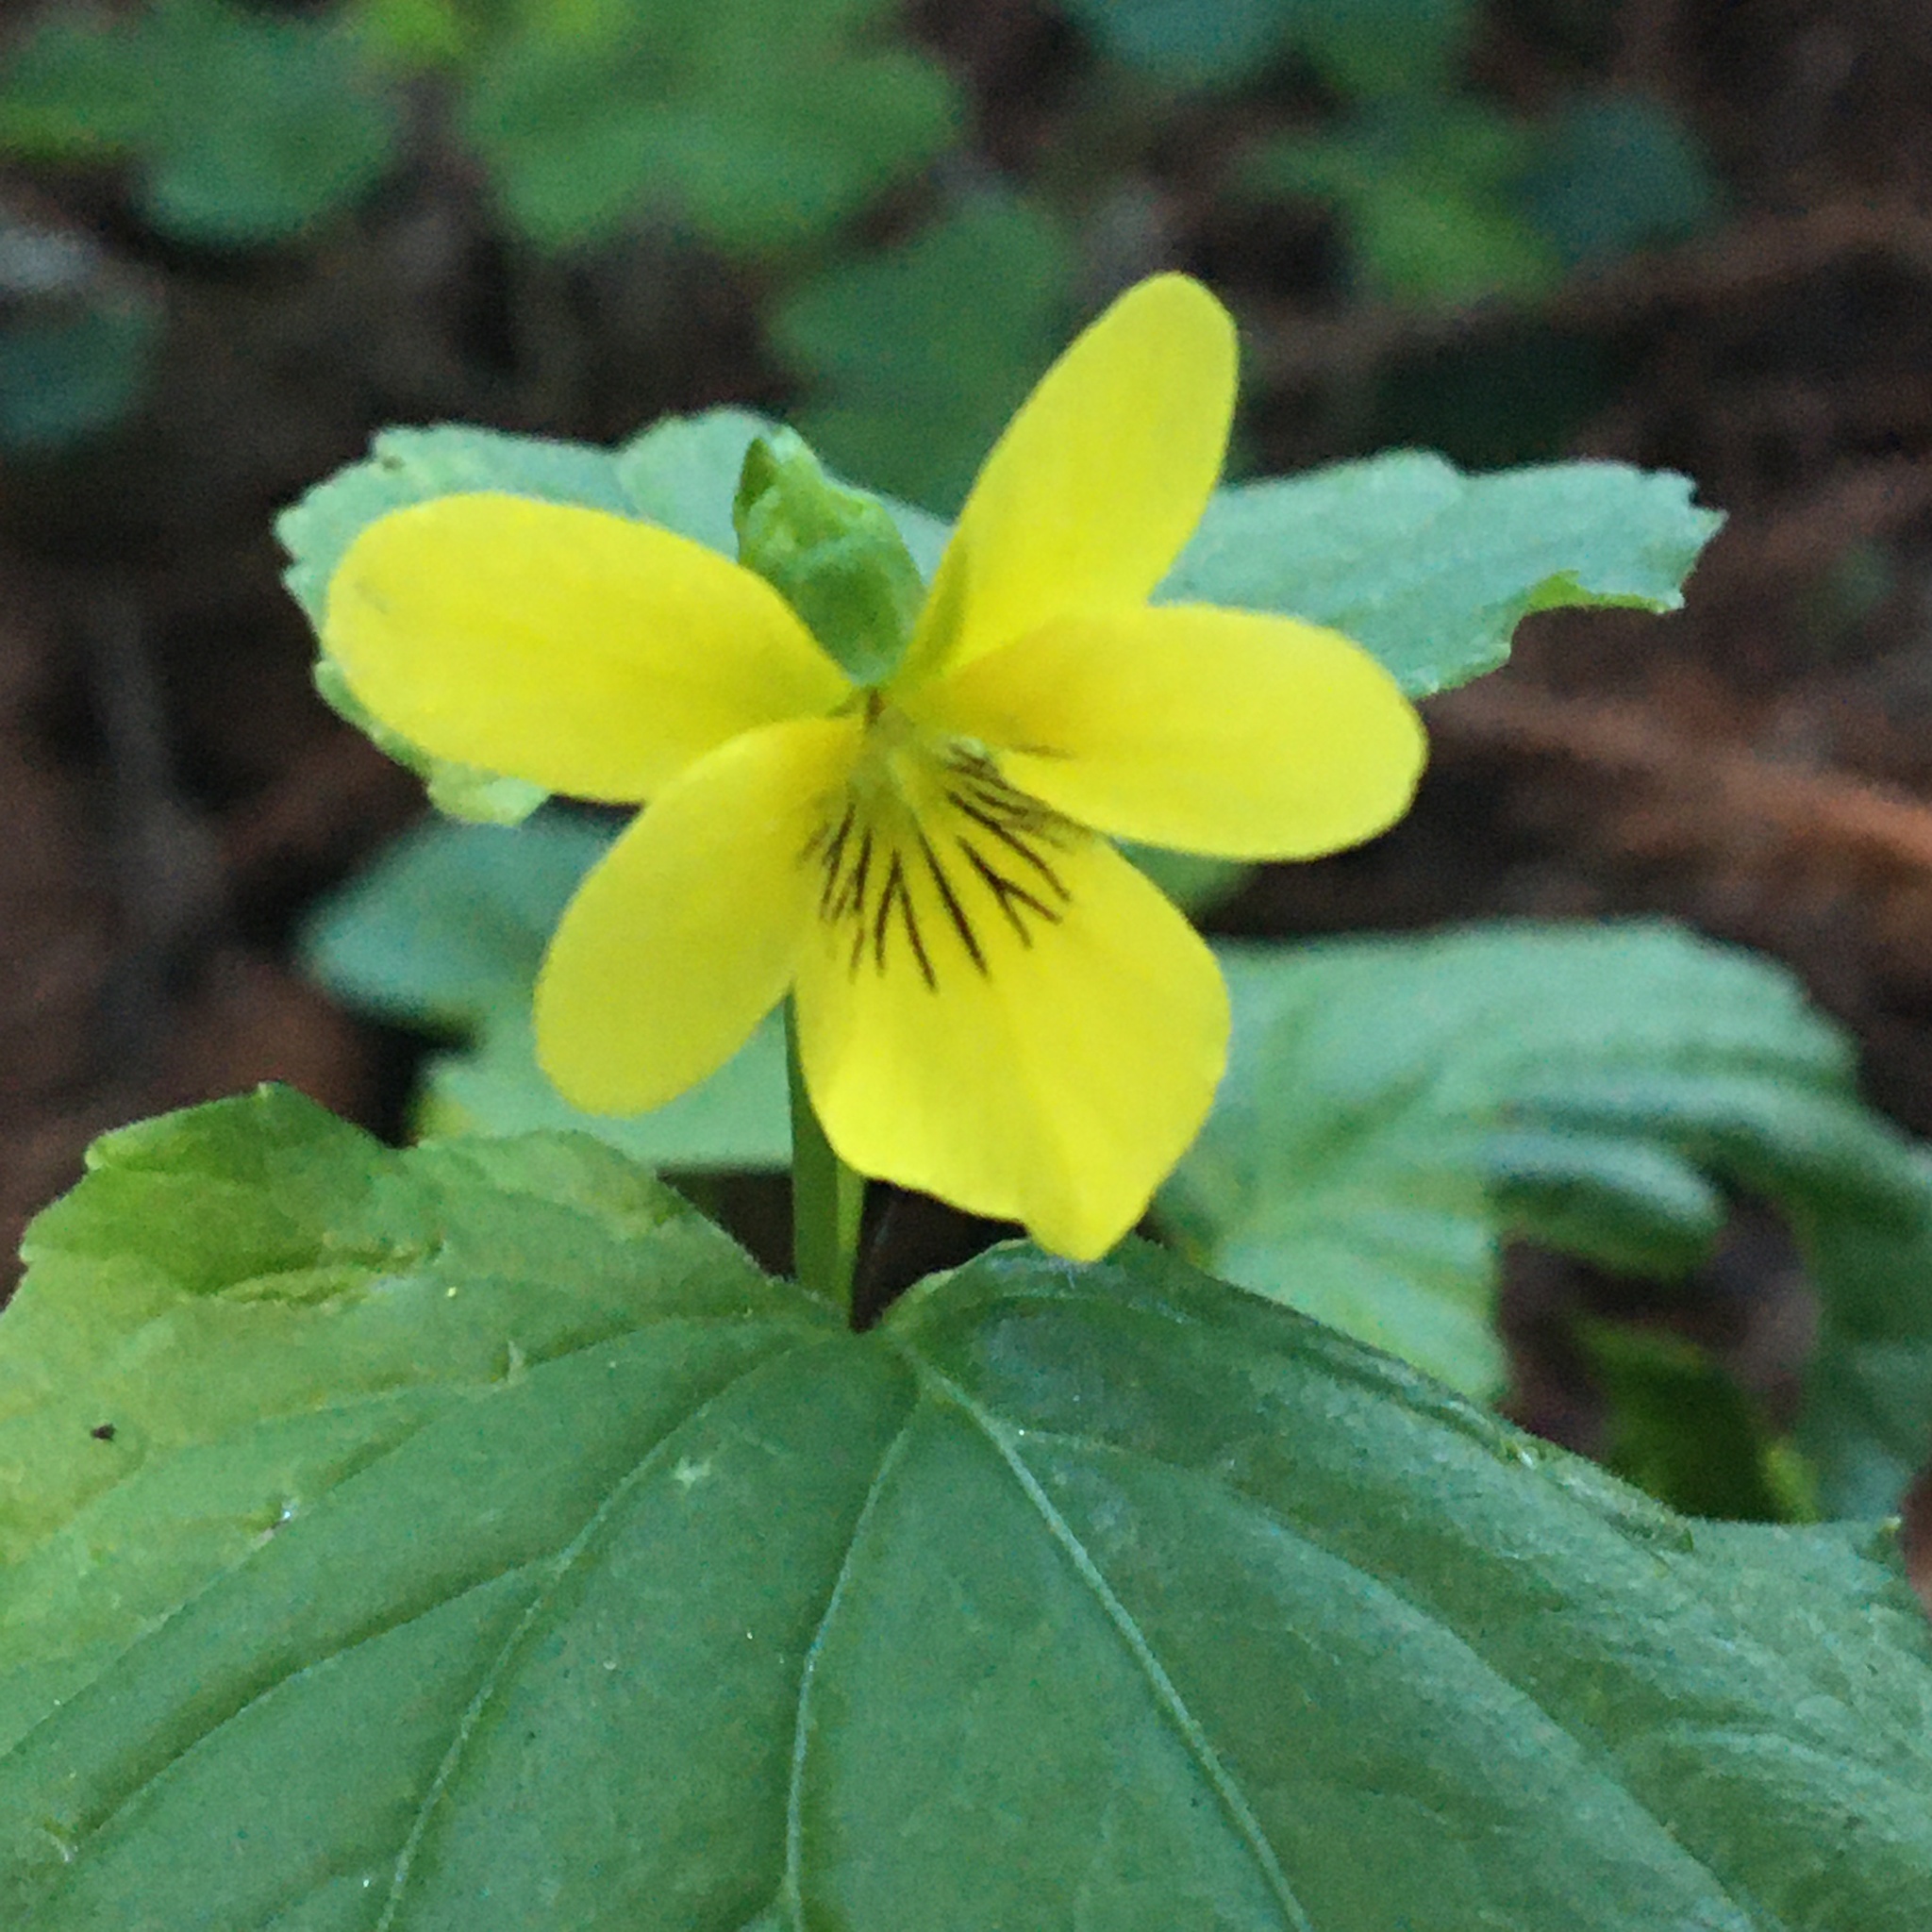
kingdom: Plantae
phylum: Tracheophyta
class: Magnoliopsida
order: Malpighiales
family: Violaceae
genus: Viola
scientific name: Viola glabella
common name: Stream violet
